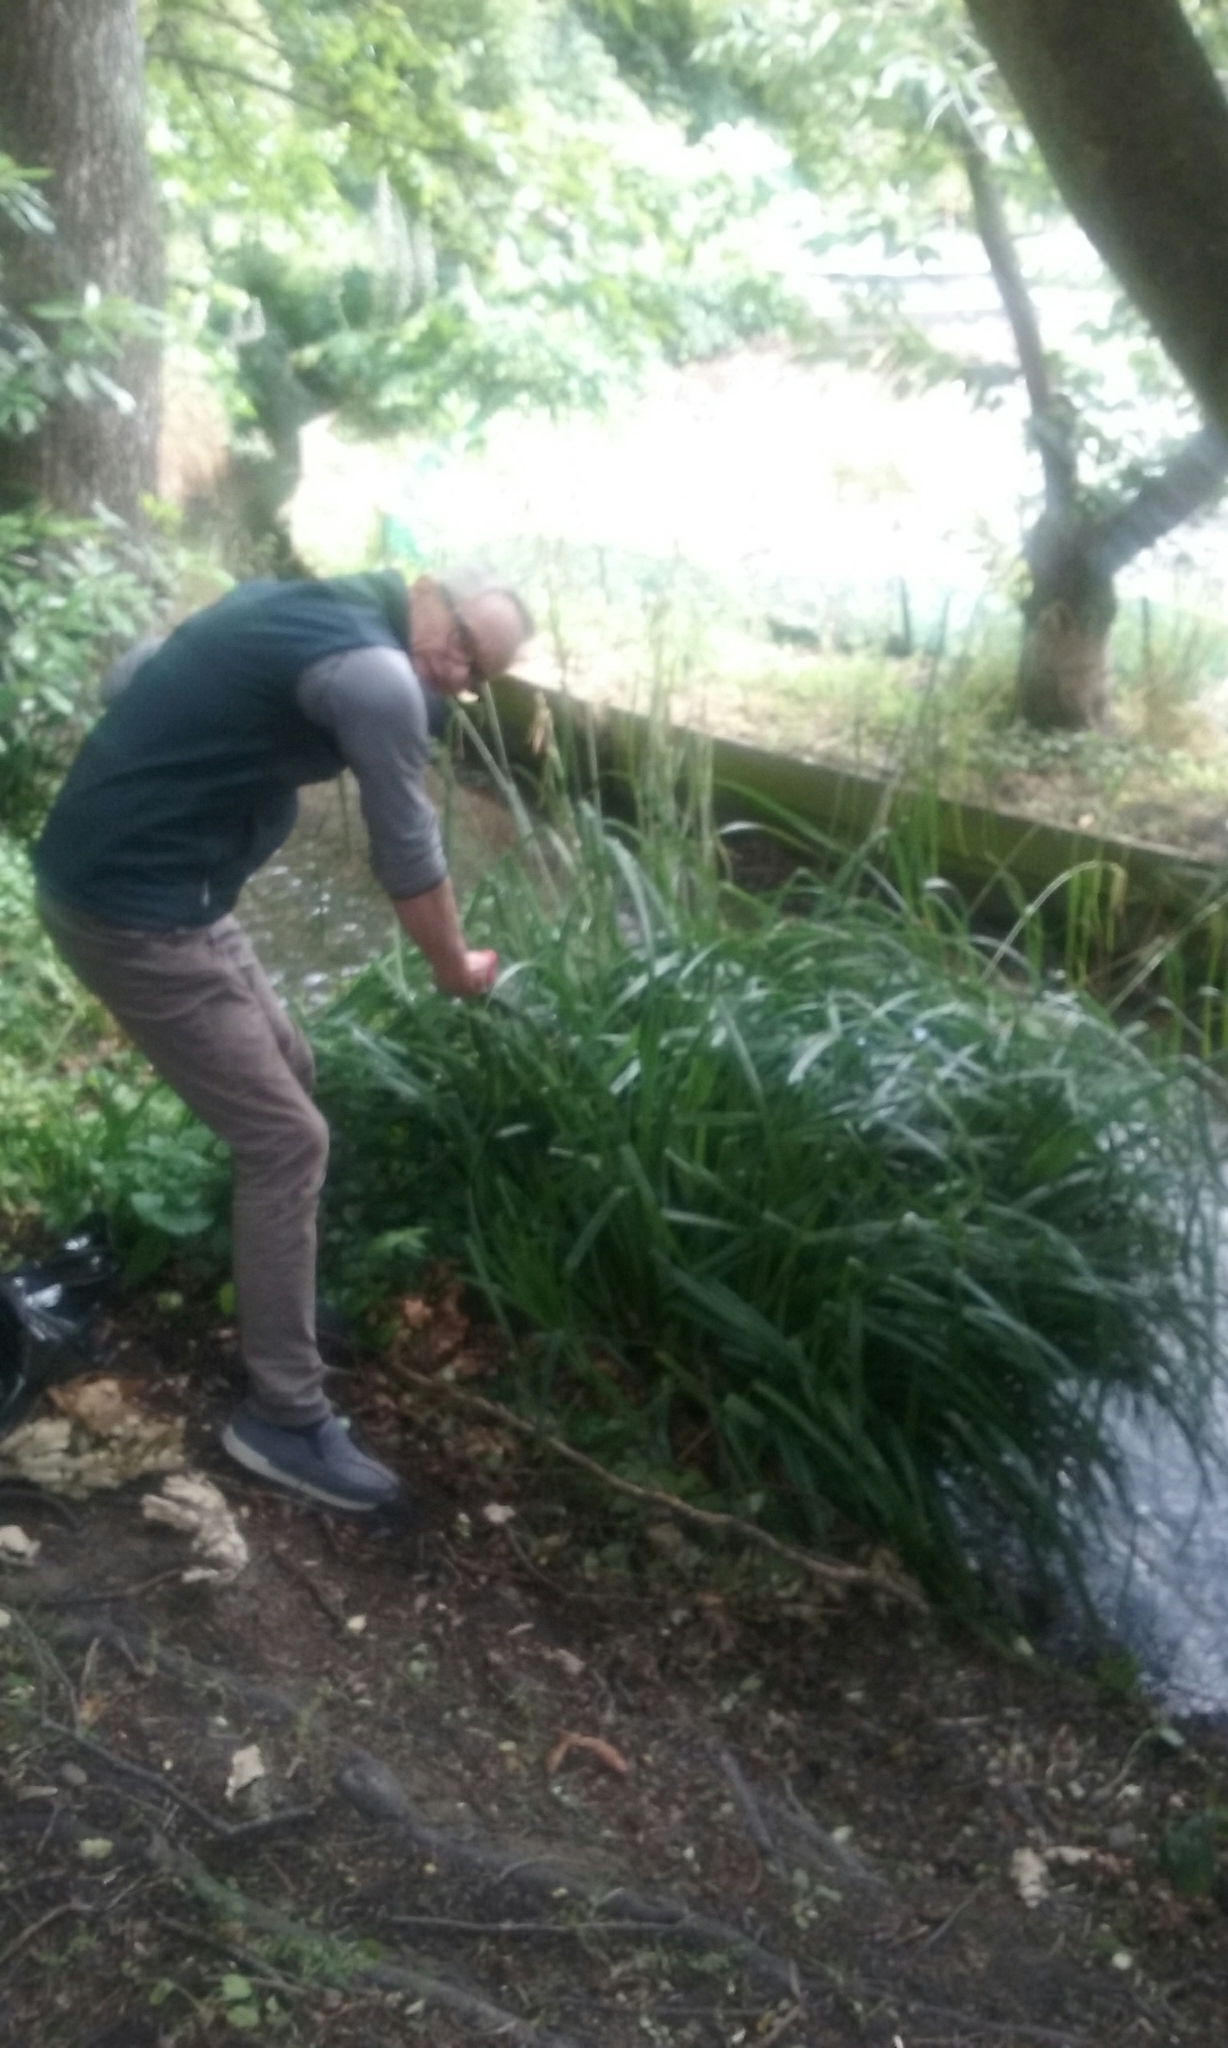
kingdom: Plantae
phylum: Tracheophyta
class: Liliopsida
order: Poales
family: Cyperaceae
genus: Carex
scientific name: Carex pendula
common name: Pendulous sedge
